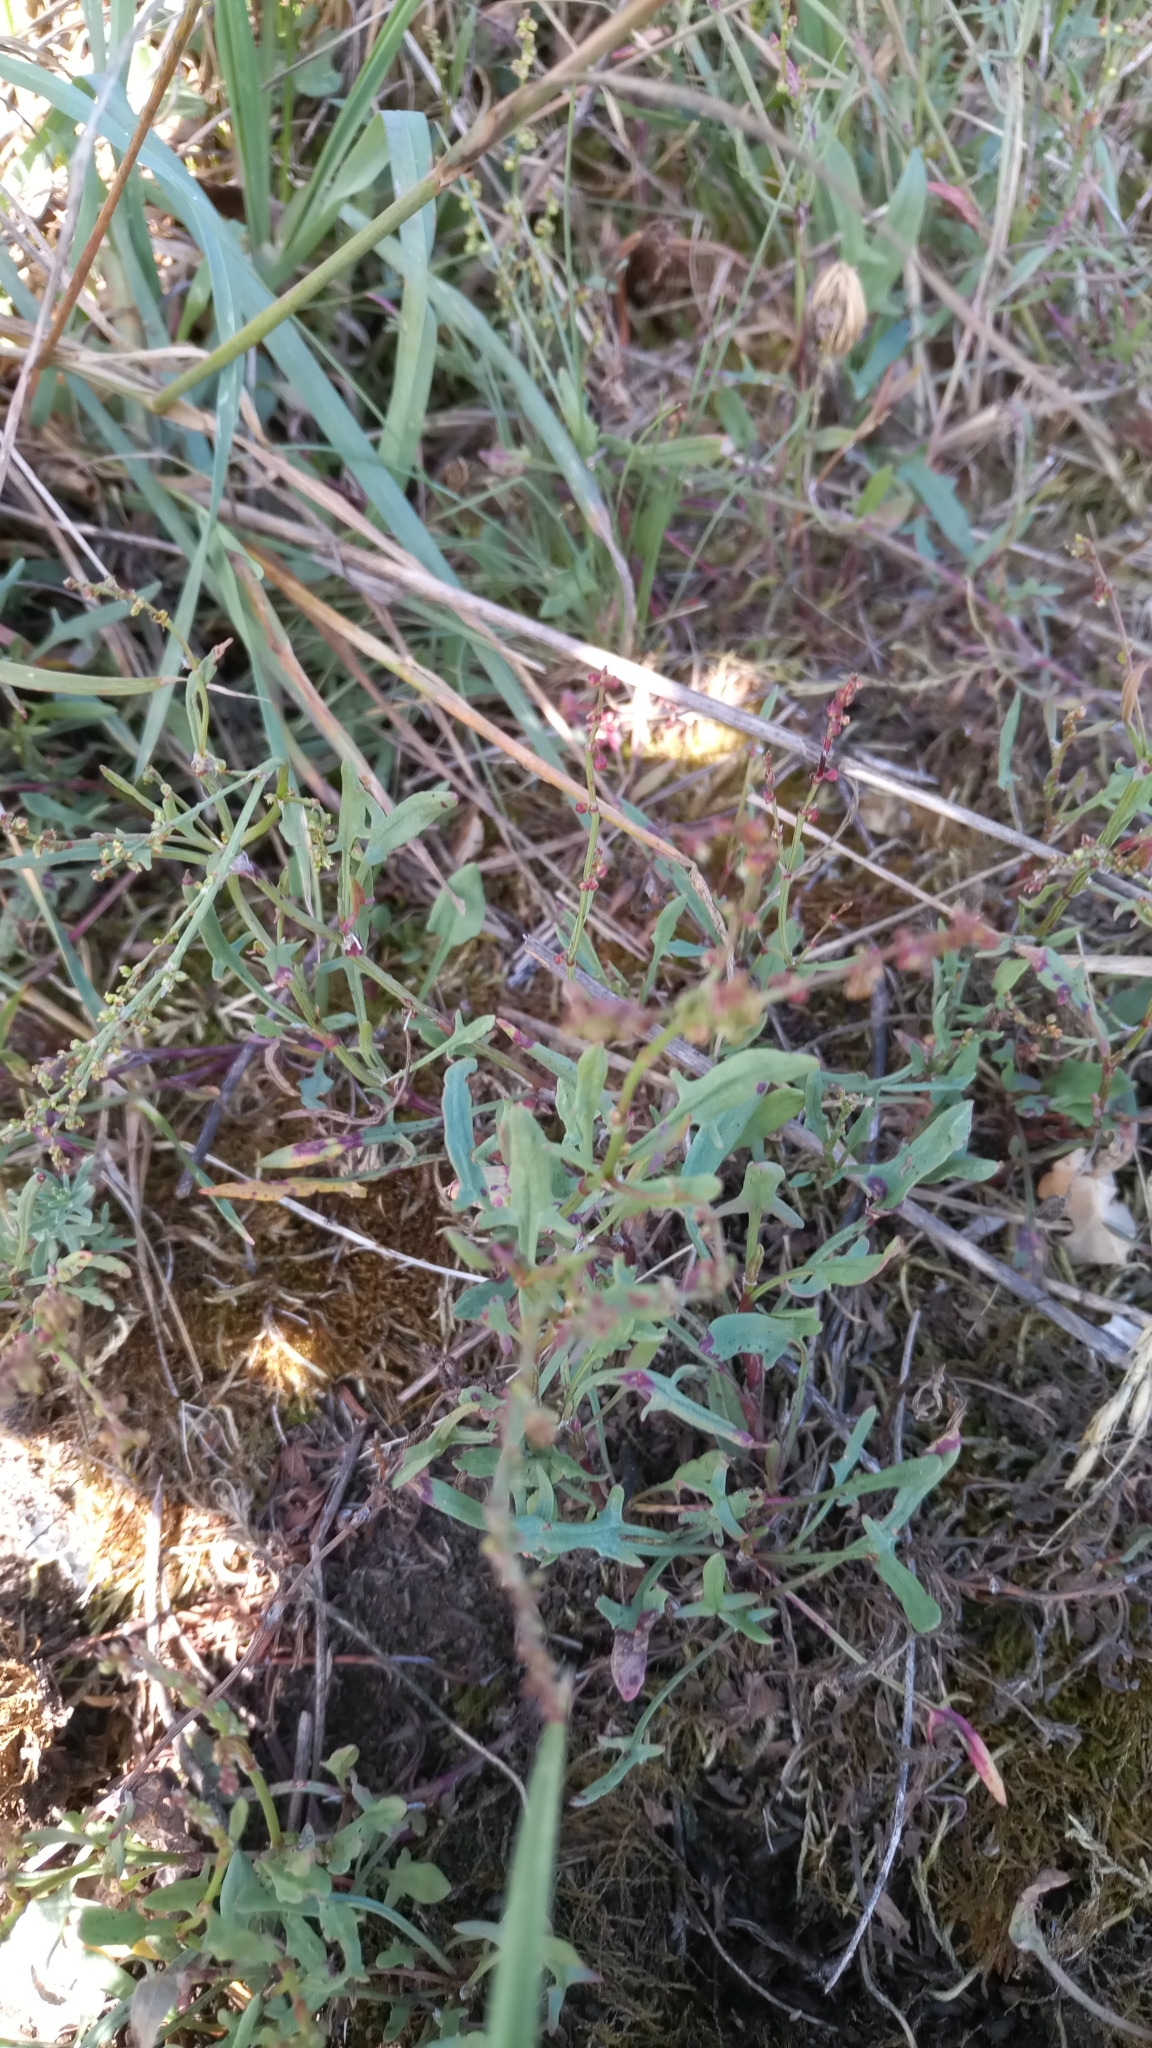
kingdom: Plantae
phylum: Tracheophyta
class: Magnoliopsida
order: Caryophyllales
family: Polygonaceae
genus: Rumex
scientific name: Rumex acetosella
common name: Common sheep sorrel
